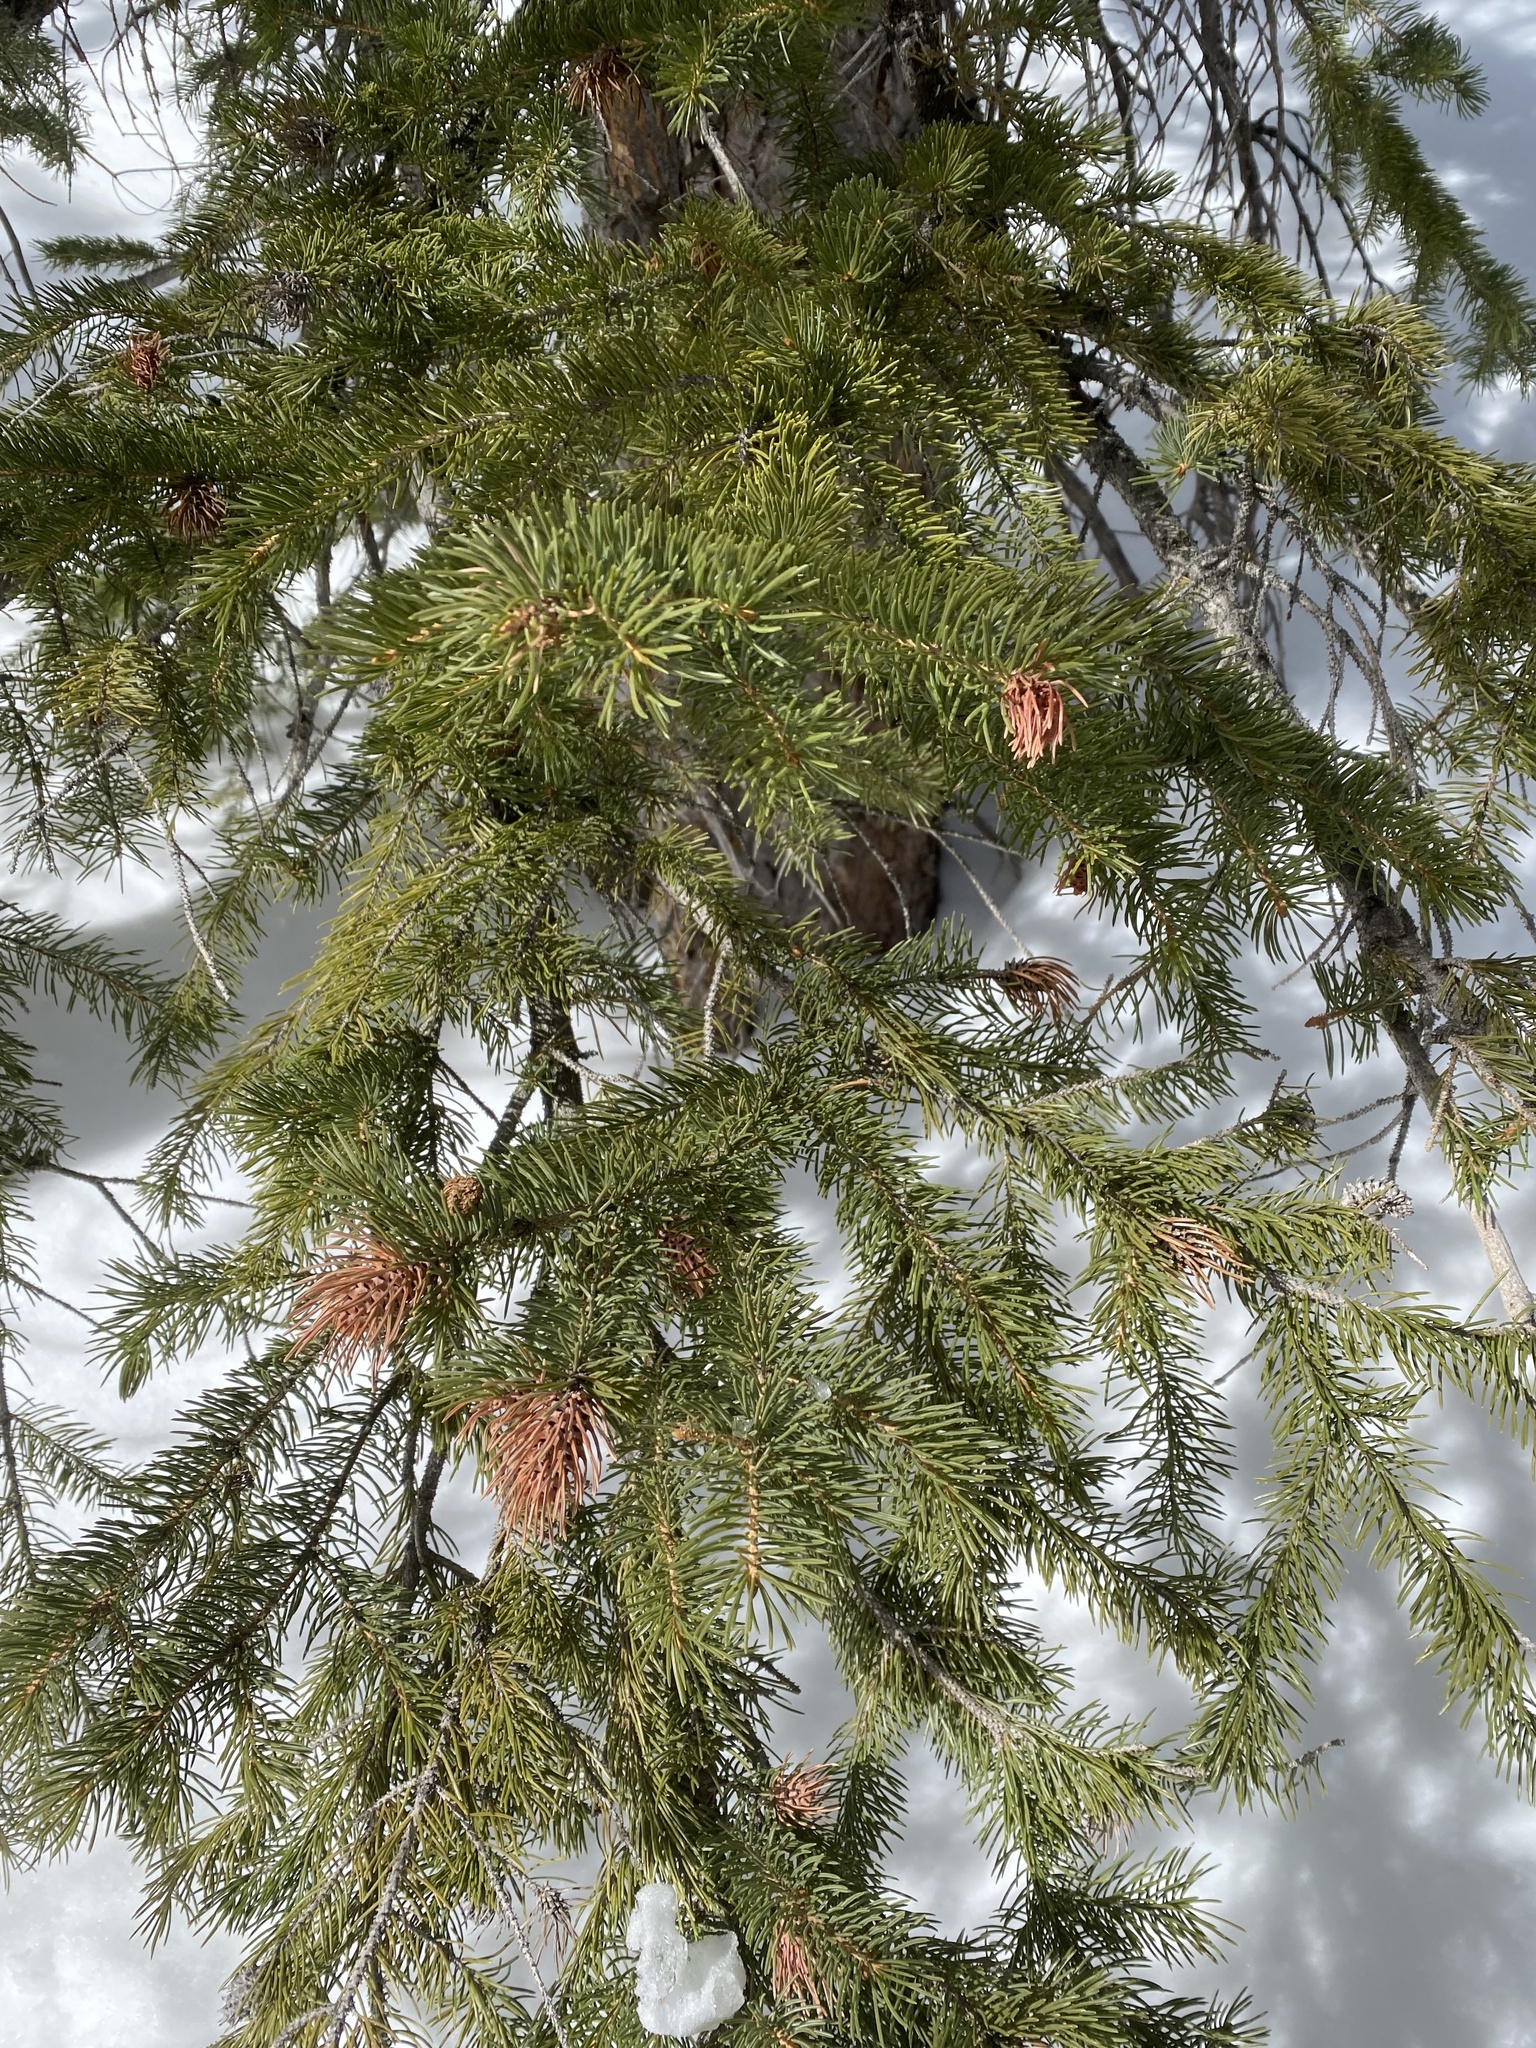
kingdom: Animalia
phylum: Arthropoda
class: Insecta
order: Hemiptera
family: Adelgidae
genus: Adelges
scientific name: Adelges cooleyi
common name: Cooley spruce gall adelgid
